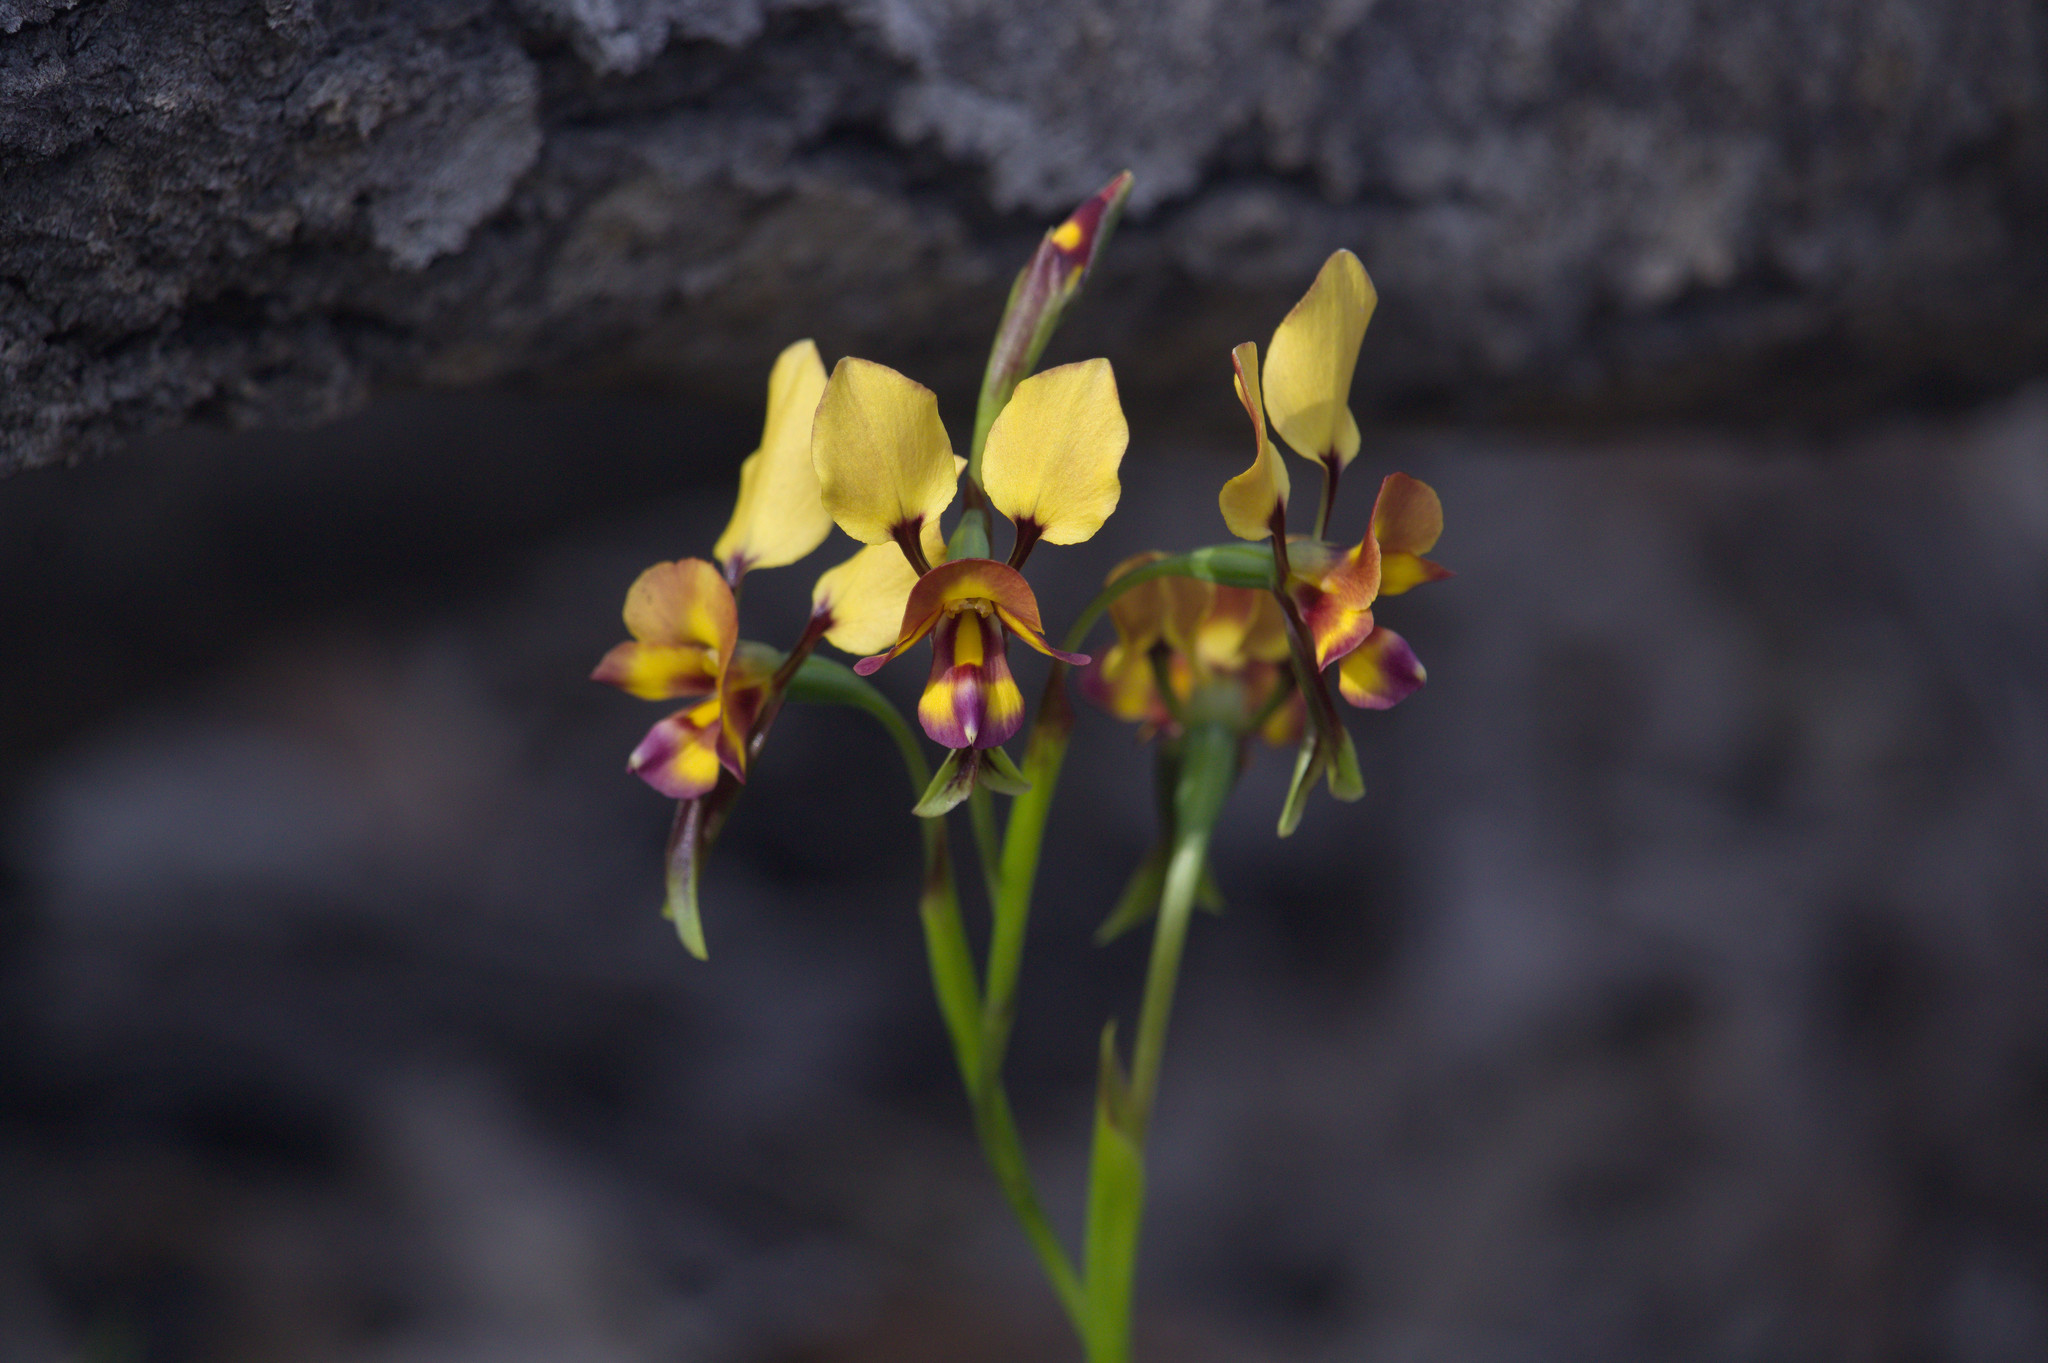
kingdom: Plantae
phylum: Tracheophyta
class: Liliopsida
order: Asparagales
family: Orchidaceae
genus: Diuris
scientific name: Diuris tinkeri
